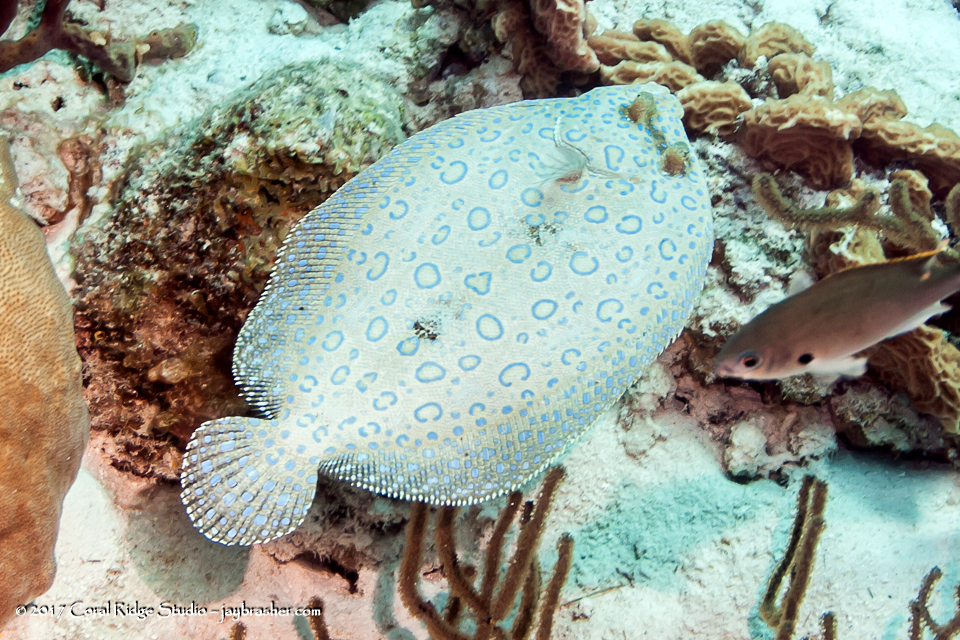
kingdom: Animalia
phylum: Chordata
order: Pleuronectiformes
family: Bothidae
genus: Bothus
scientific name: Bothus lunatus
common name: Peacock flounder
